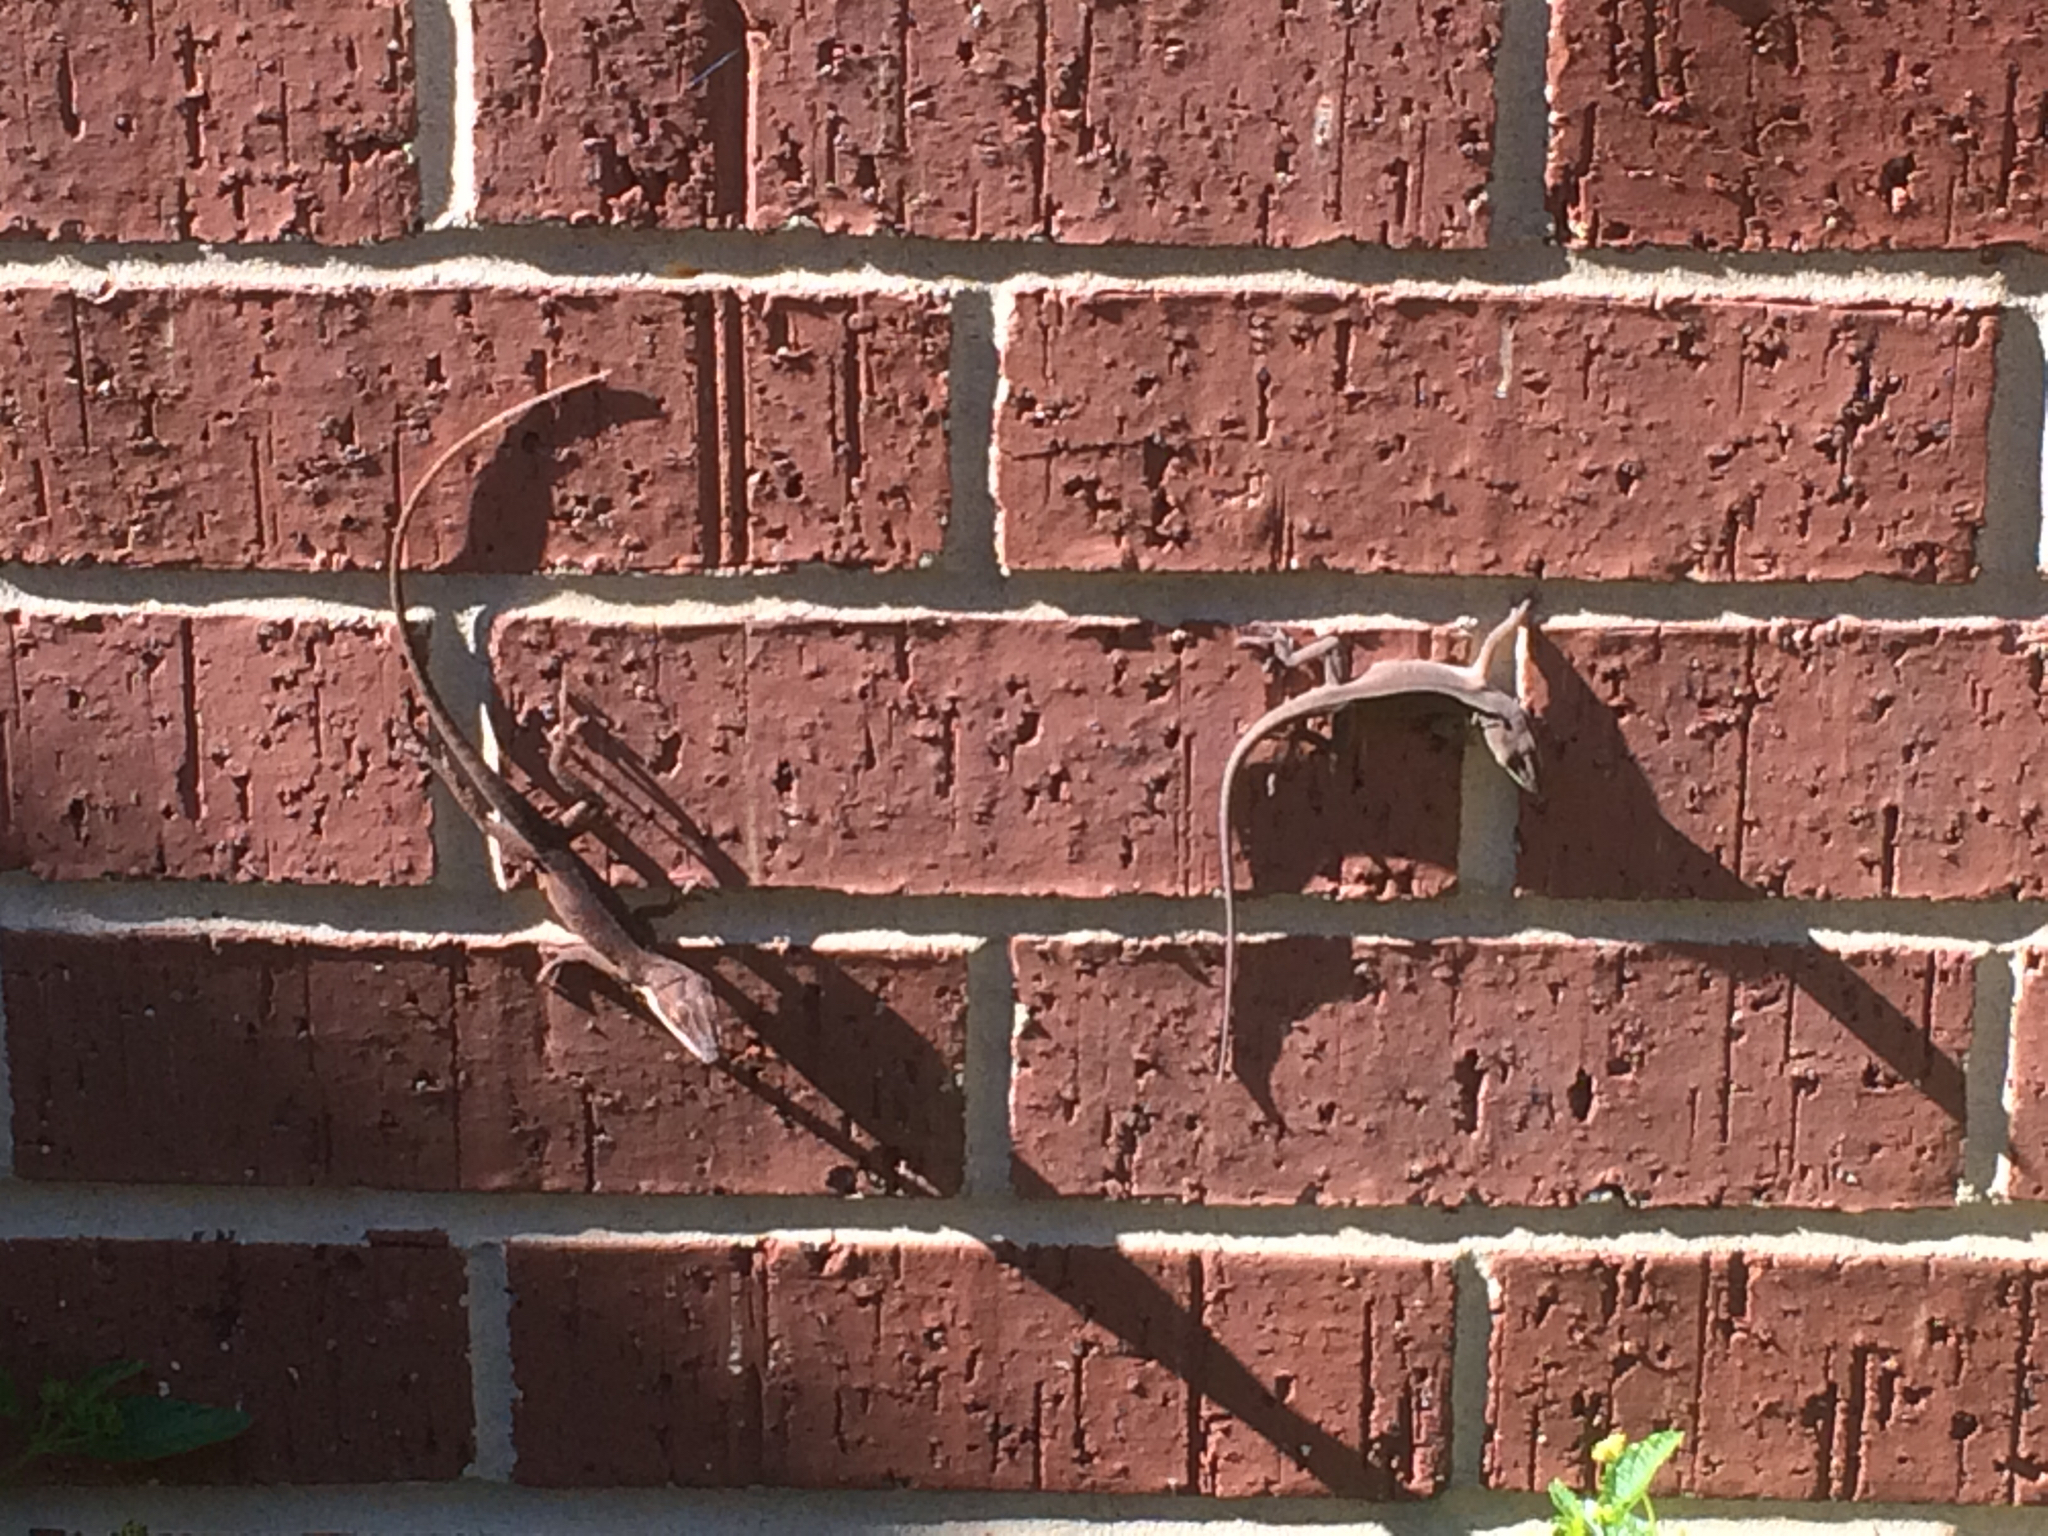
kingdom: Animalia
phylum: Chordata
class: Squamata
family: Dactyloidae
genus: Anolis
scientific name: Anolis carolinensis
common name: Green anole
